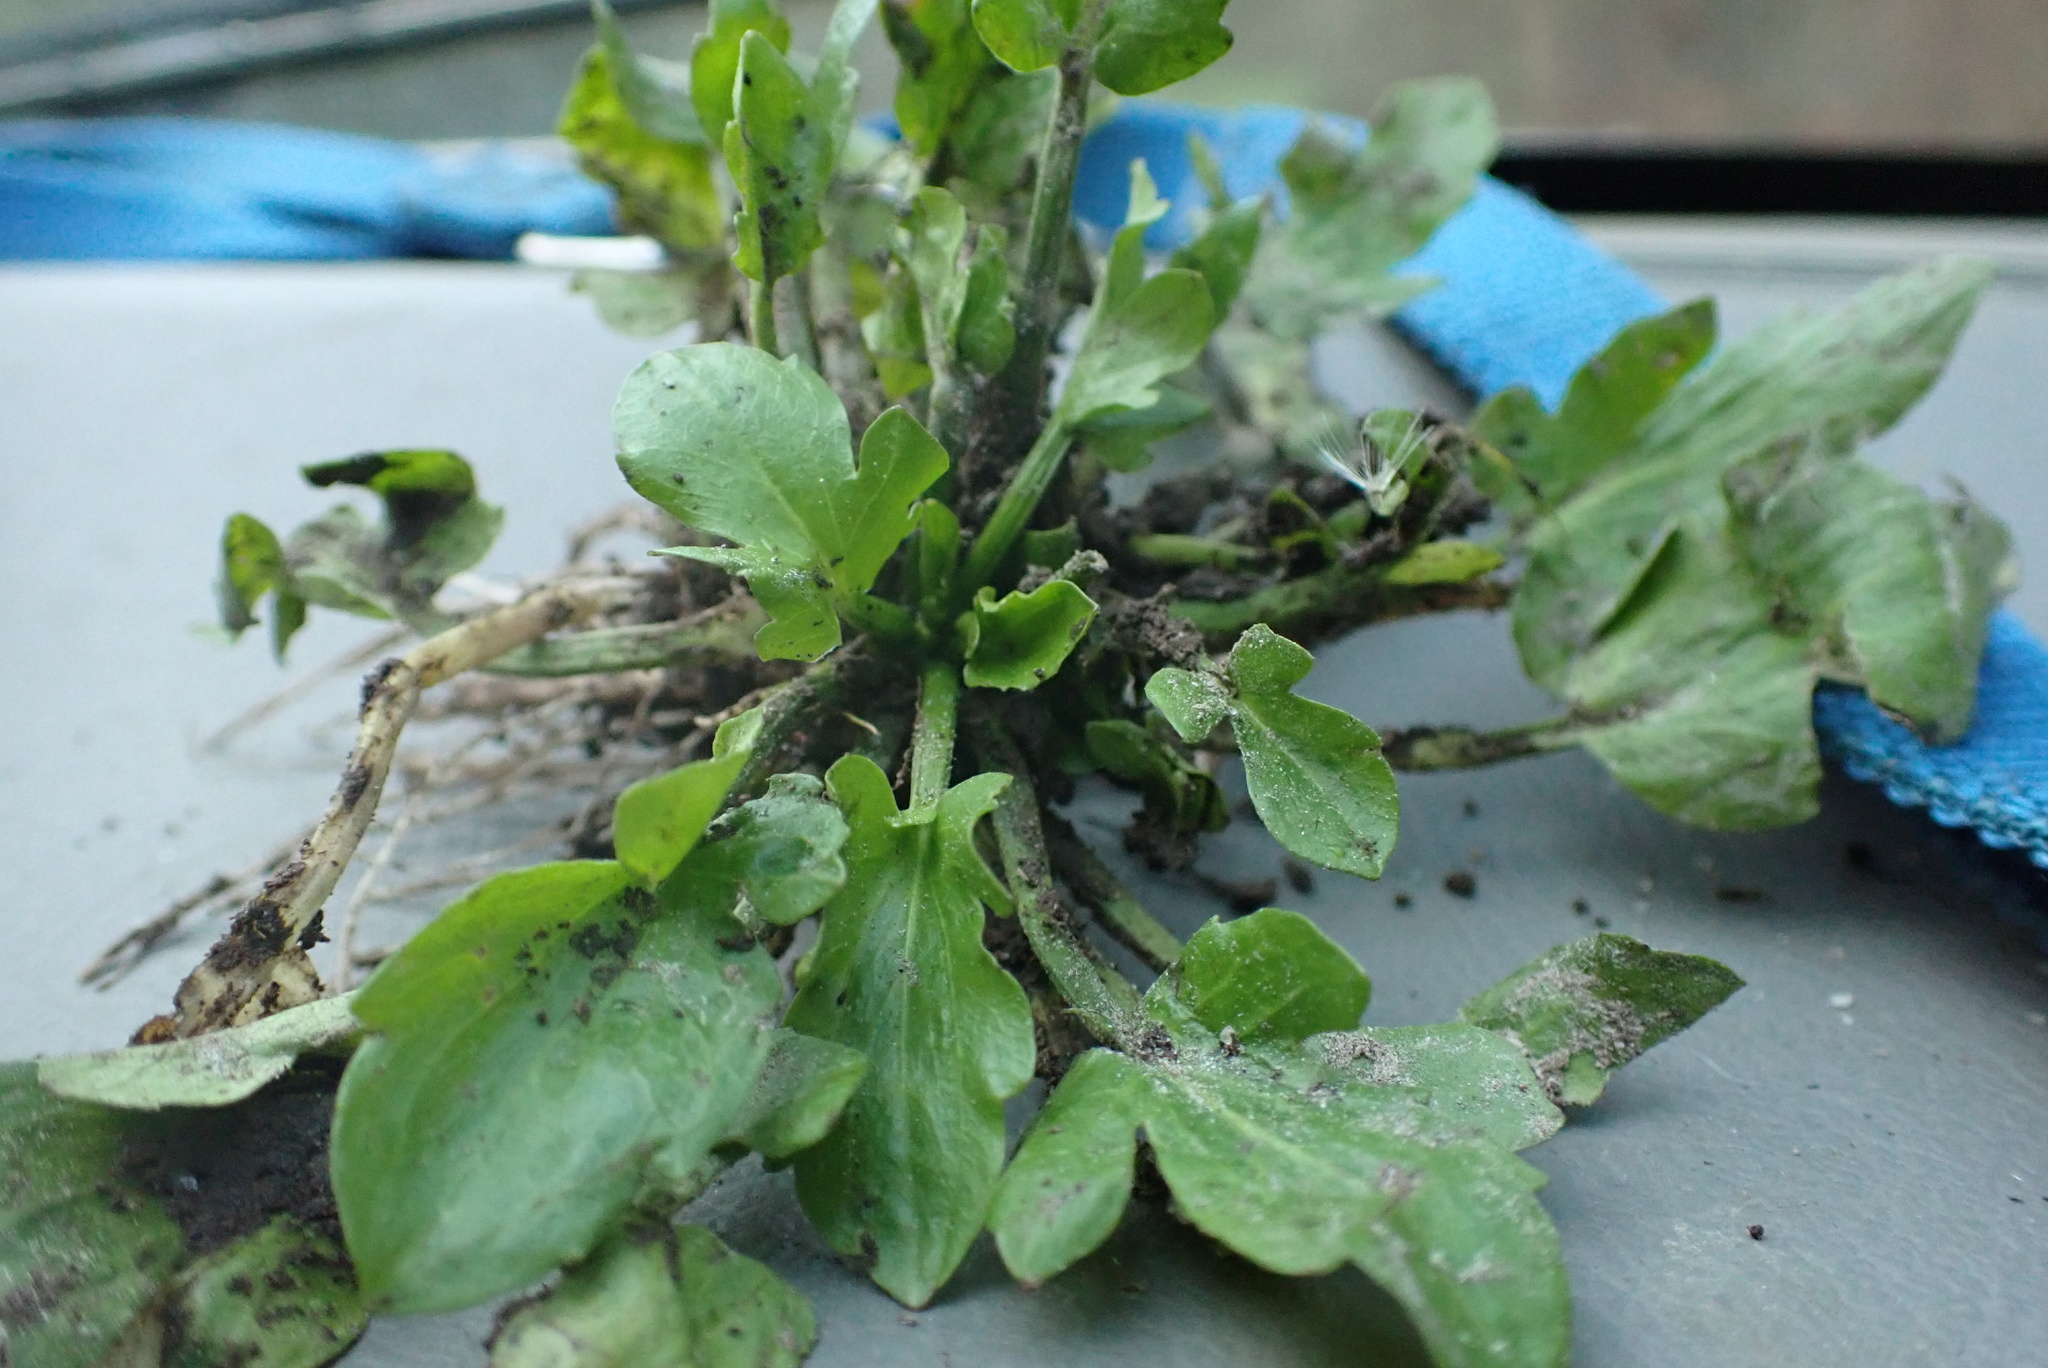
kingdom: Plantae
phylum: Tracheophyta
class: Magnoliopsida
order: Apiales
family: Apiaceae
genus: Eryngium
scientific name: Eryngium prostratum
